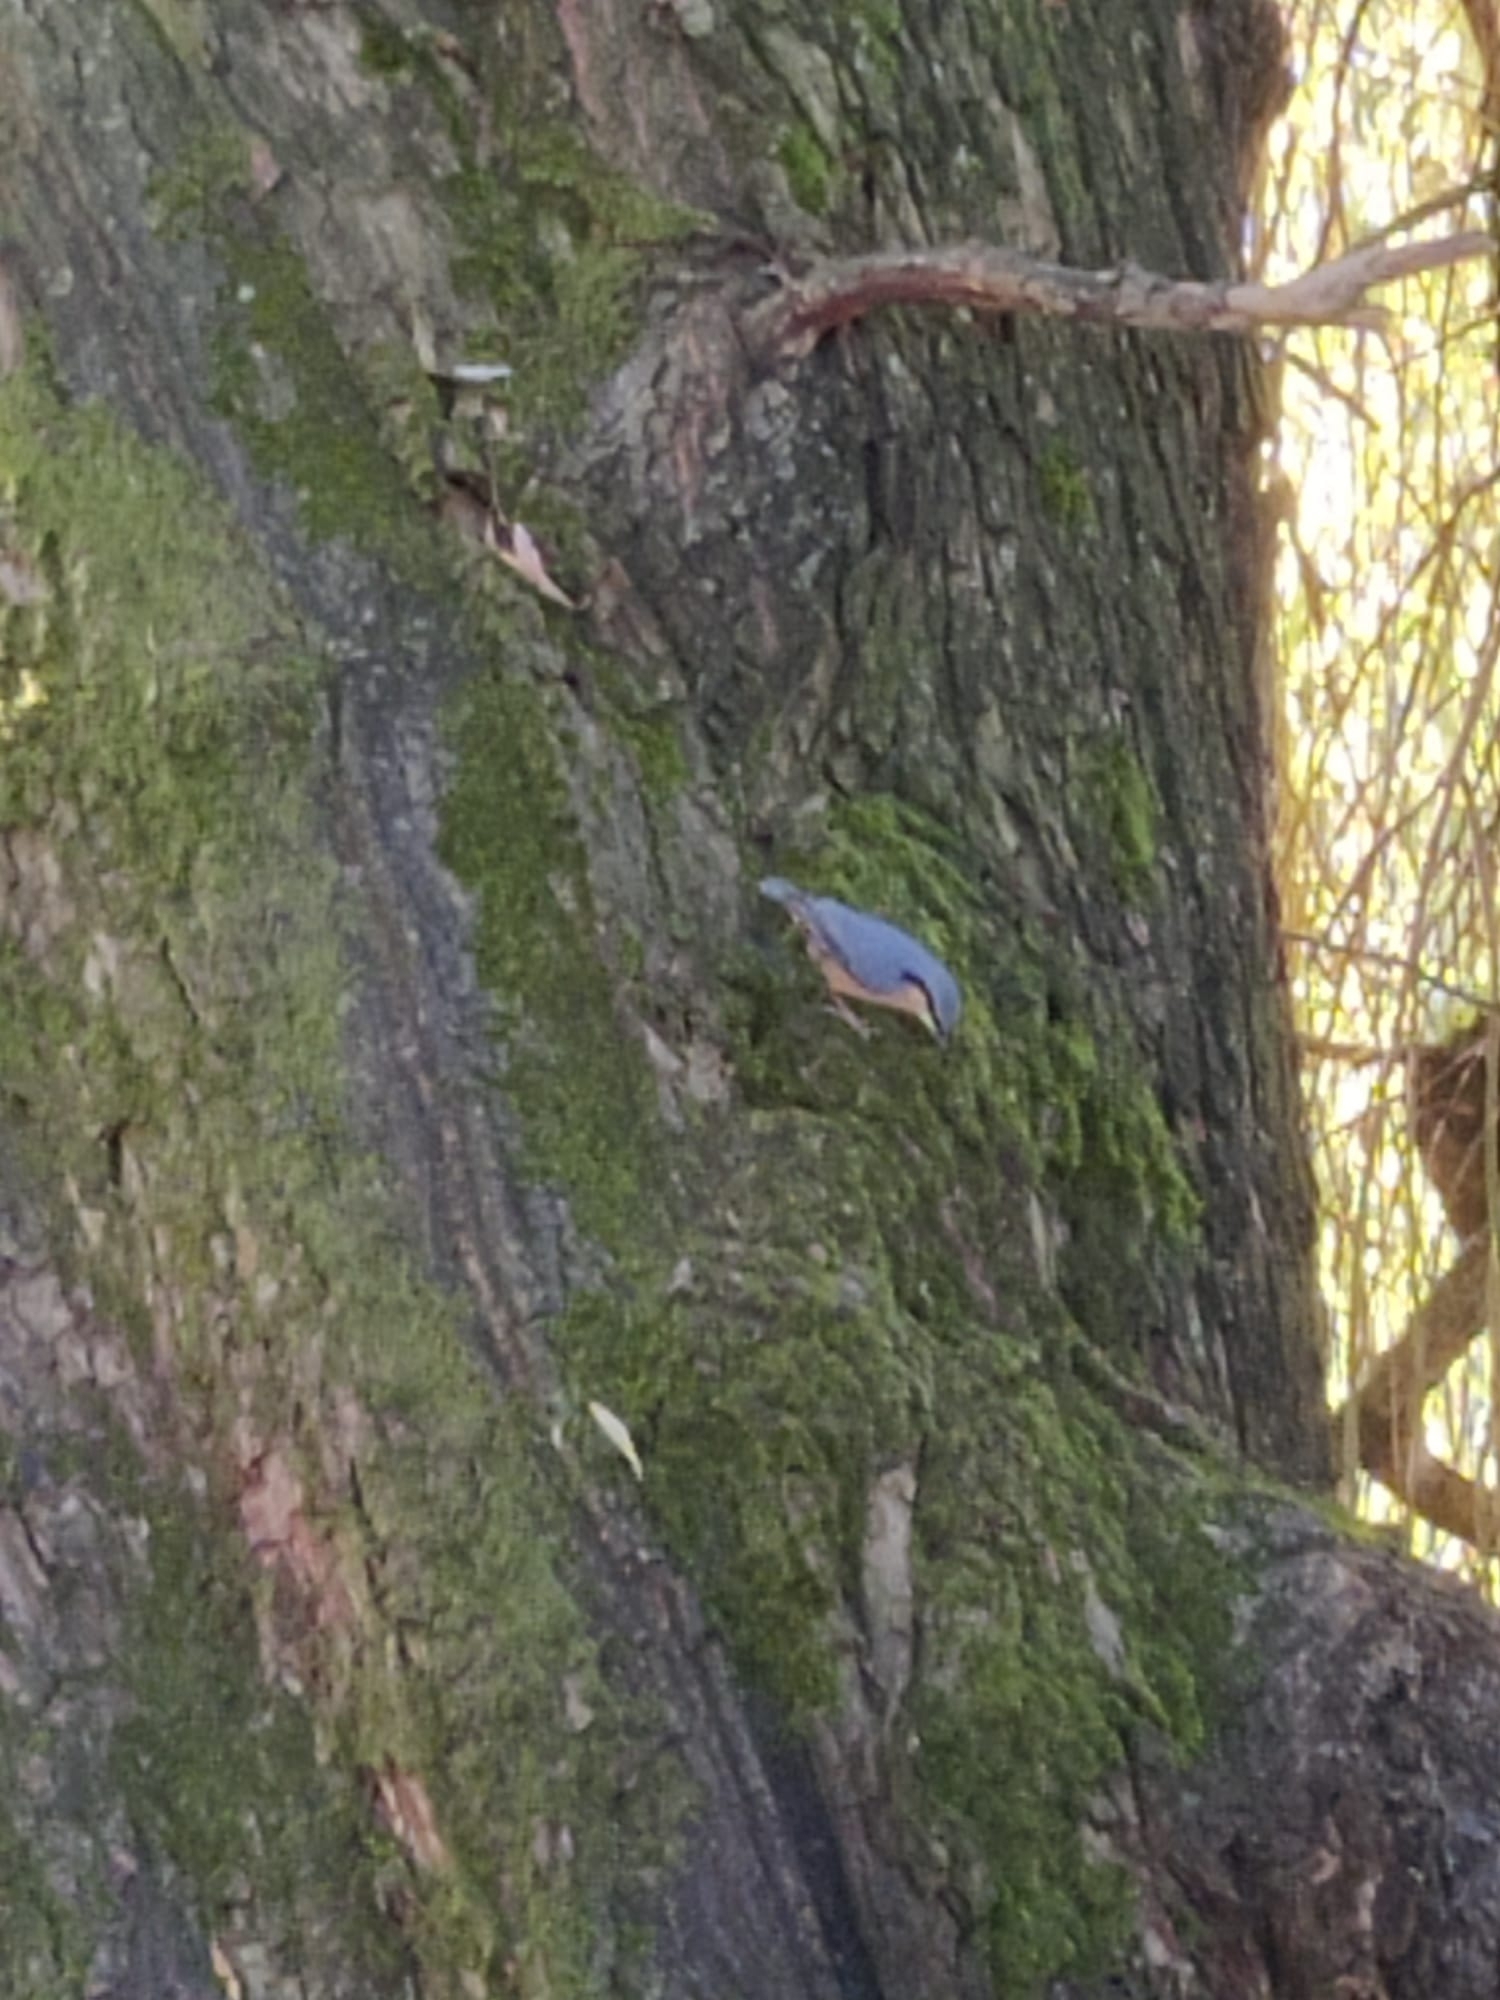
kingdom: Animalia
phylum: Chordata
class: Aves
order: Passeriformes
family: Sittidae
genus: Sitta
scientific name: Sitta europaea
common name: Eurasian nuthatch
